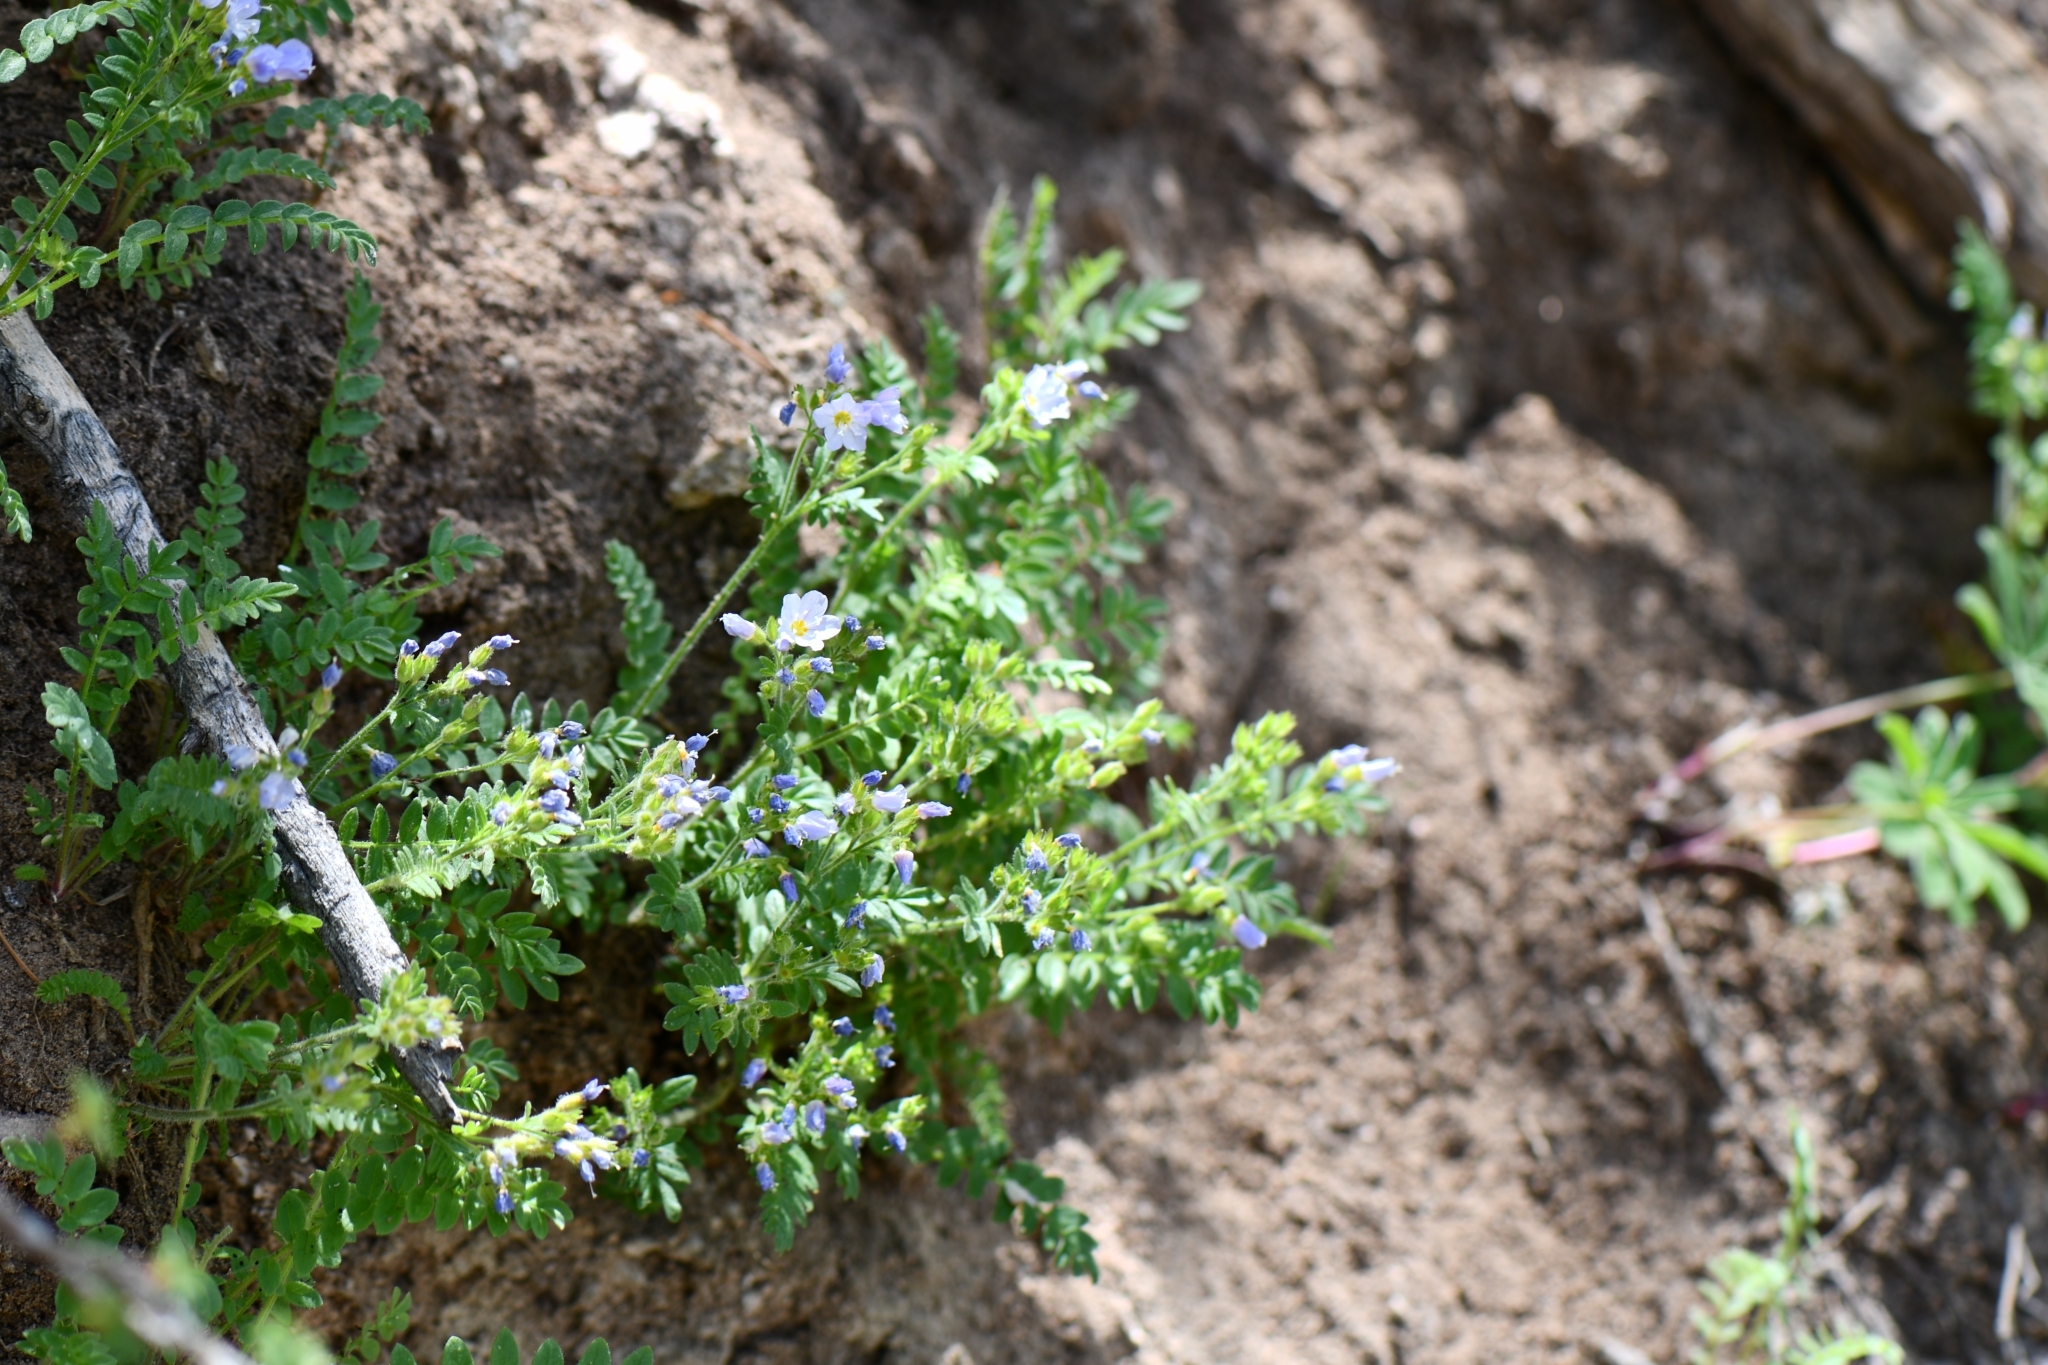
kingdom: Plantae
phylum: Tracheophyta
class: Magnoliopsida
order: Ericales
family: Polemoniaceae
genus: Polemonium
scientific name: Polemonium pulcherrimum
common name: Short jacob's-ladder
